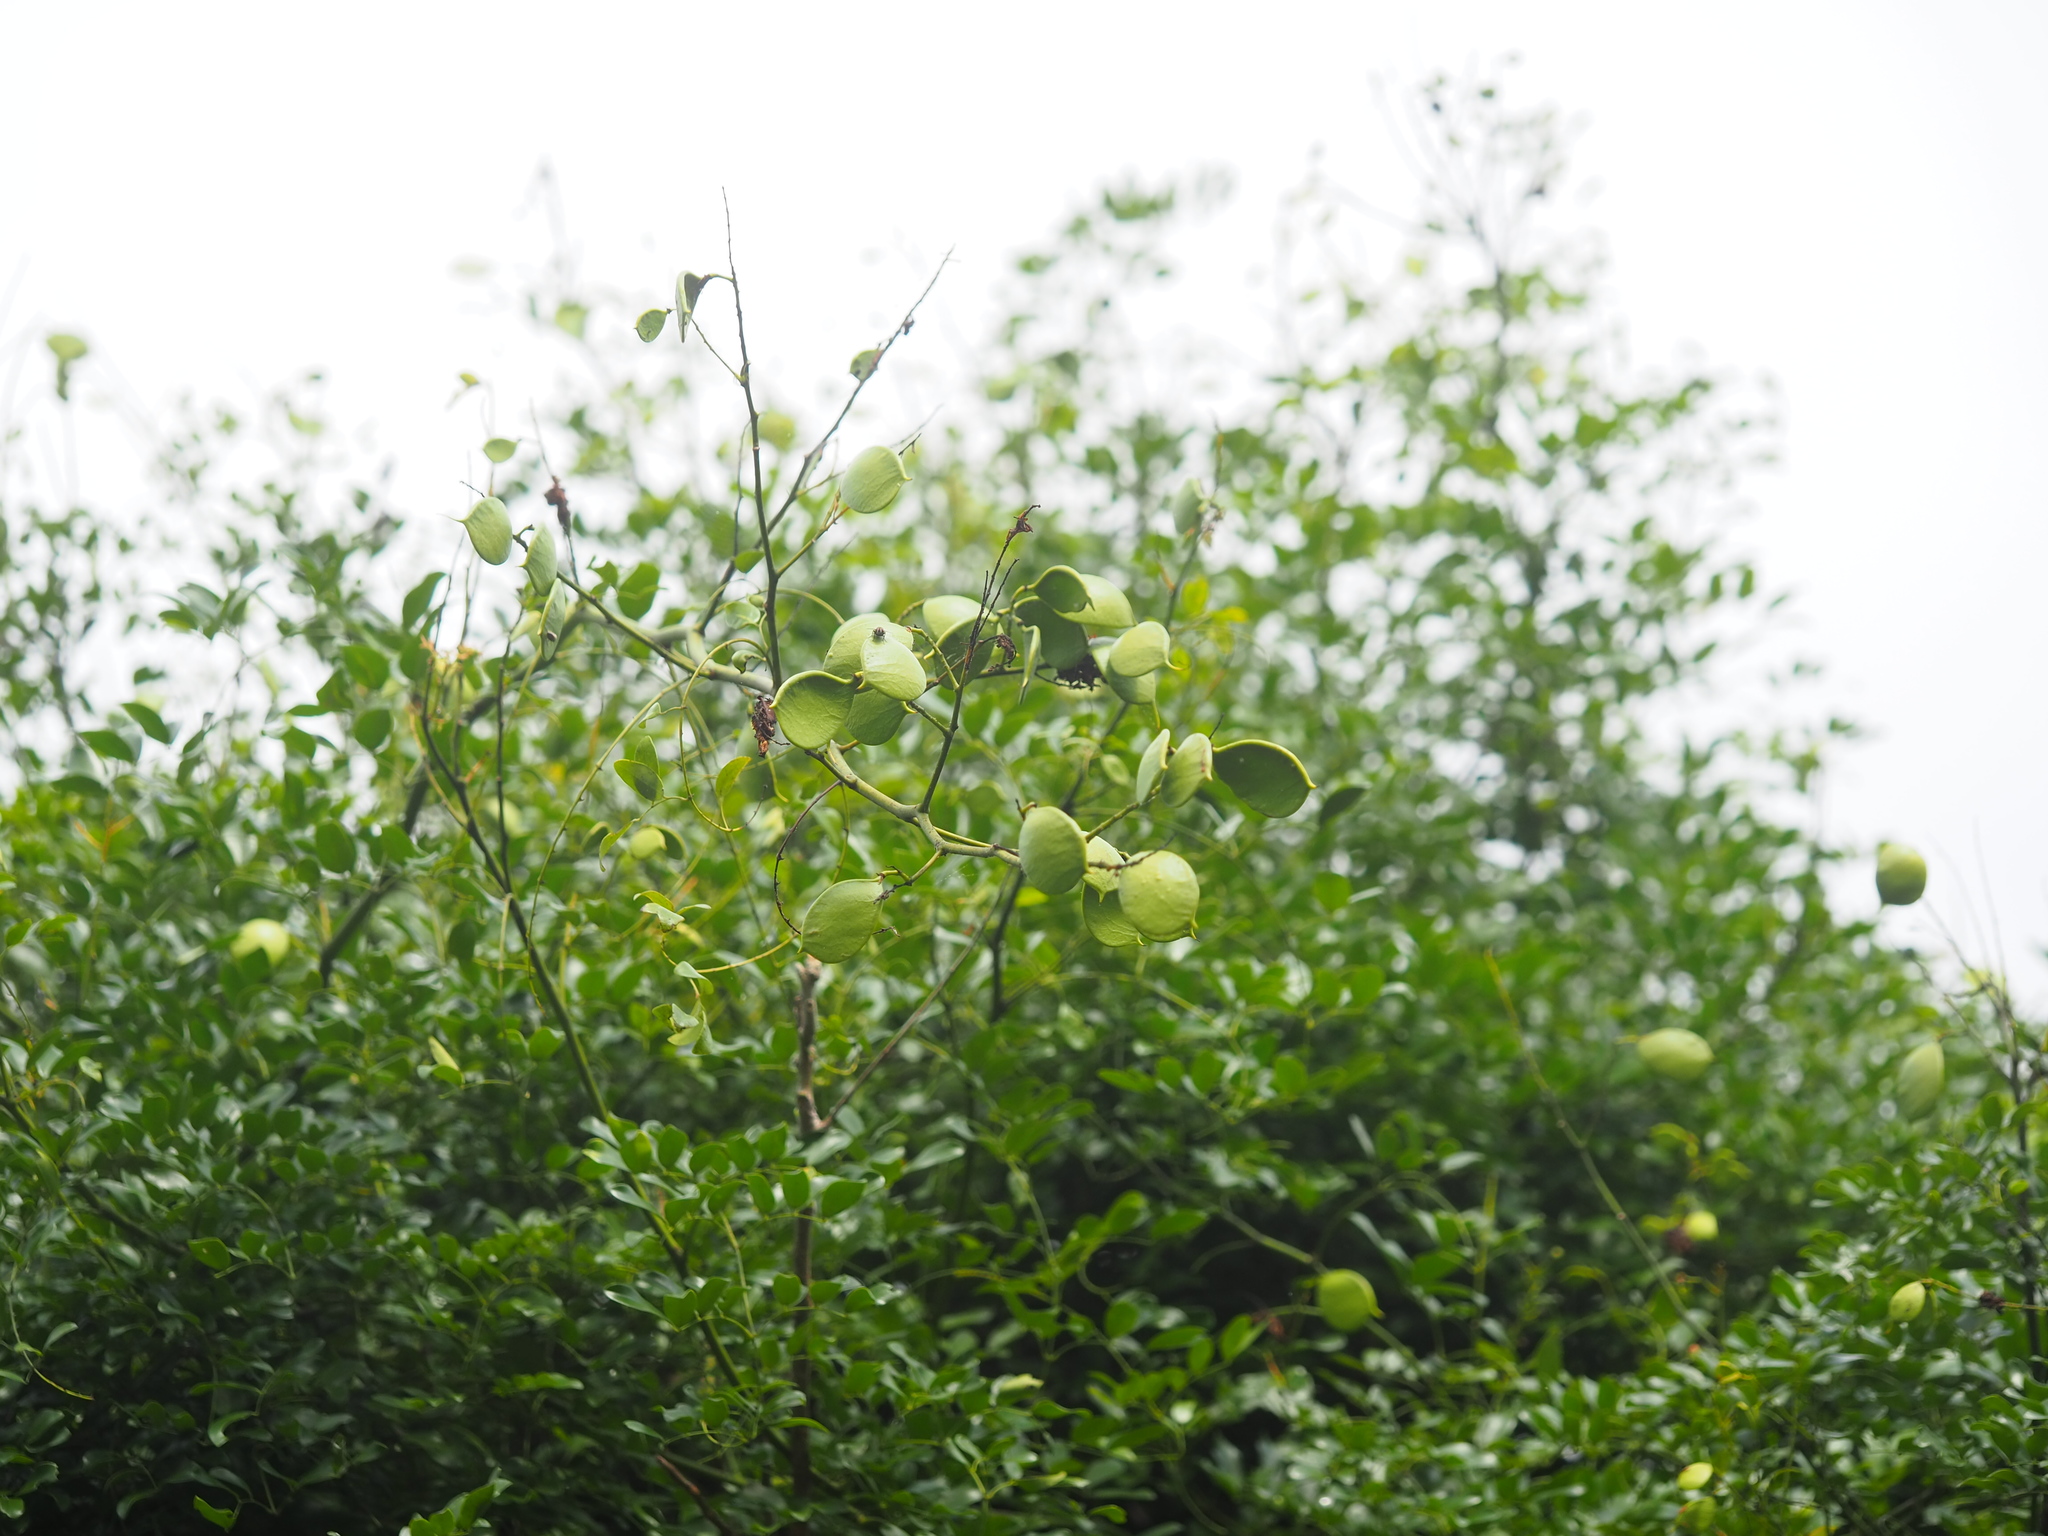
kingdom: Plantae
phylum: Tracheophyta
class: Magnoliopsida
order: Fabales
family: Fabaceae
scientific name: Fabaceae
